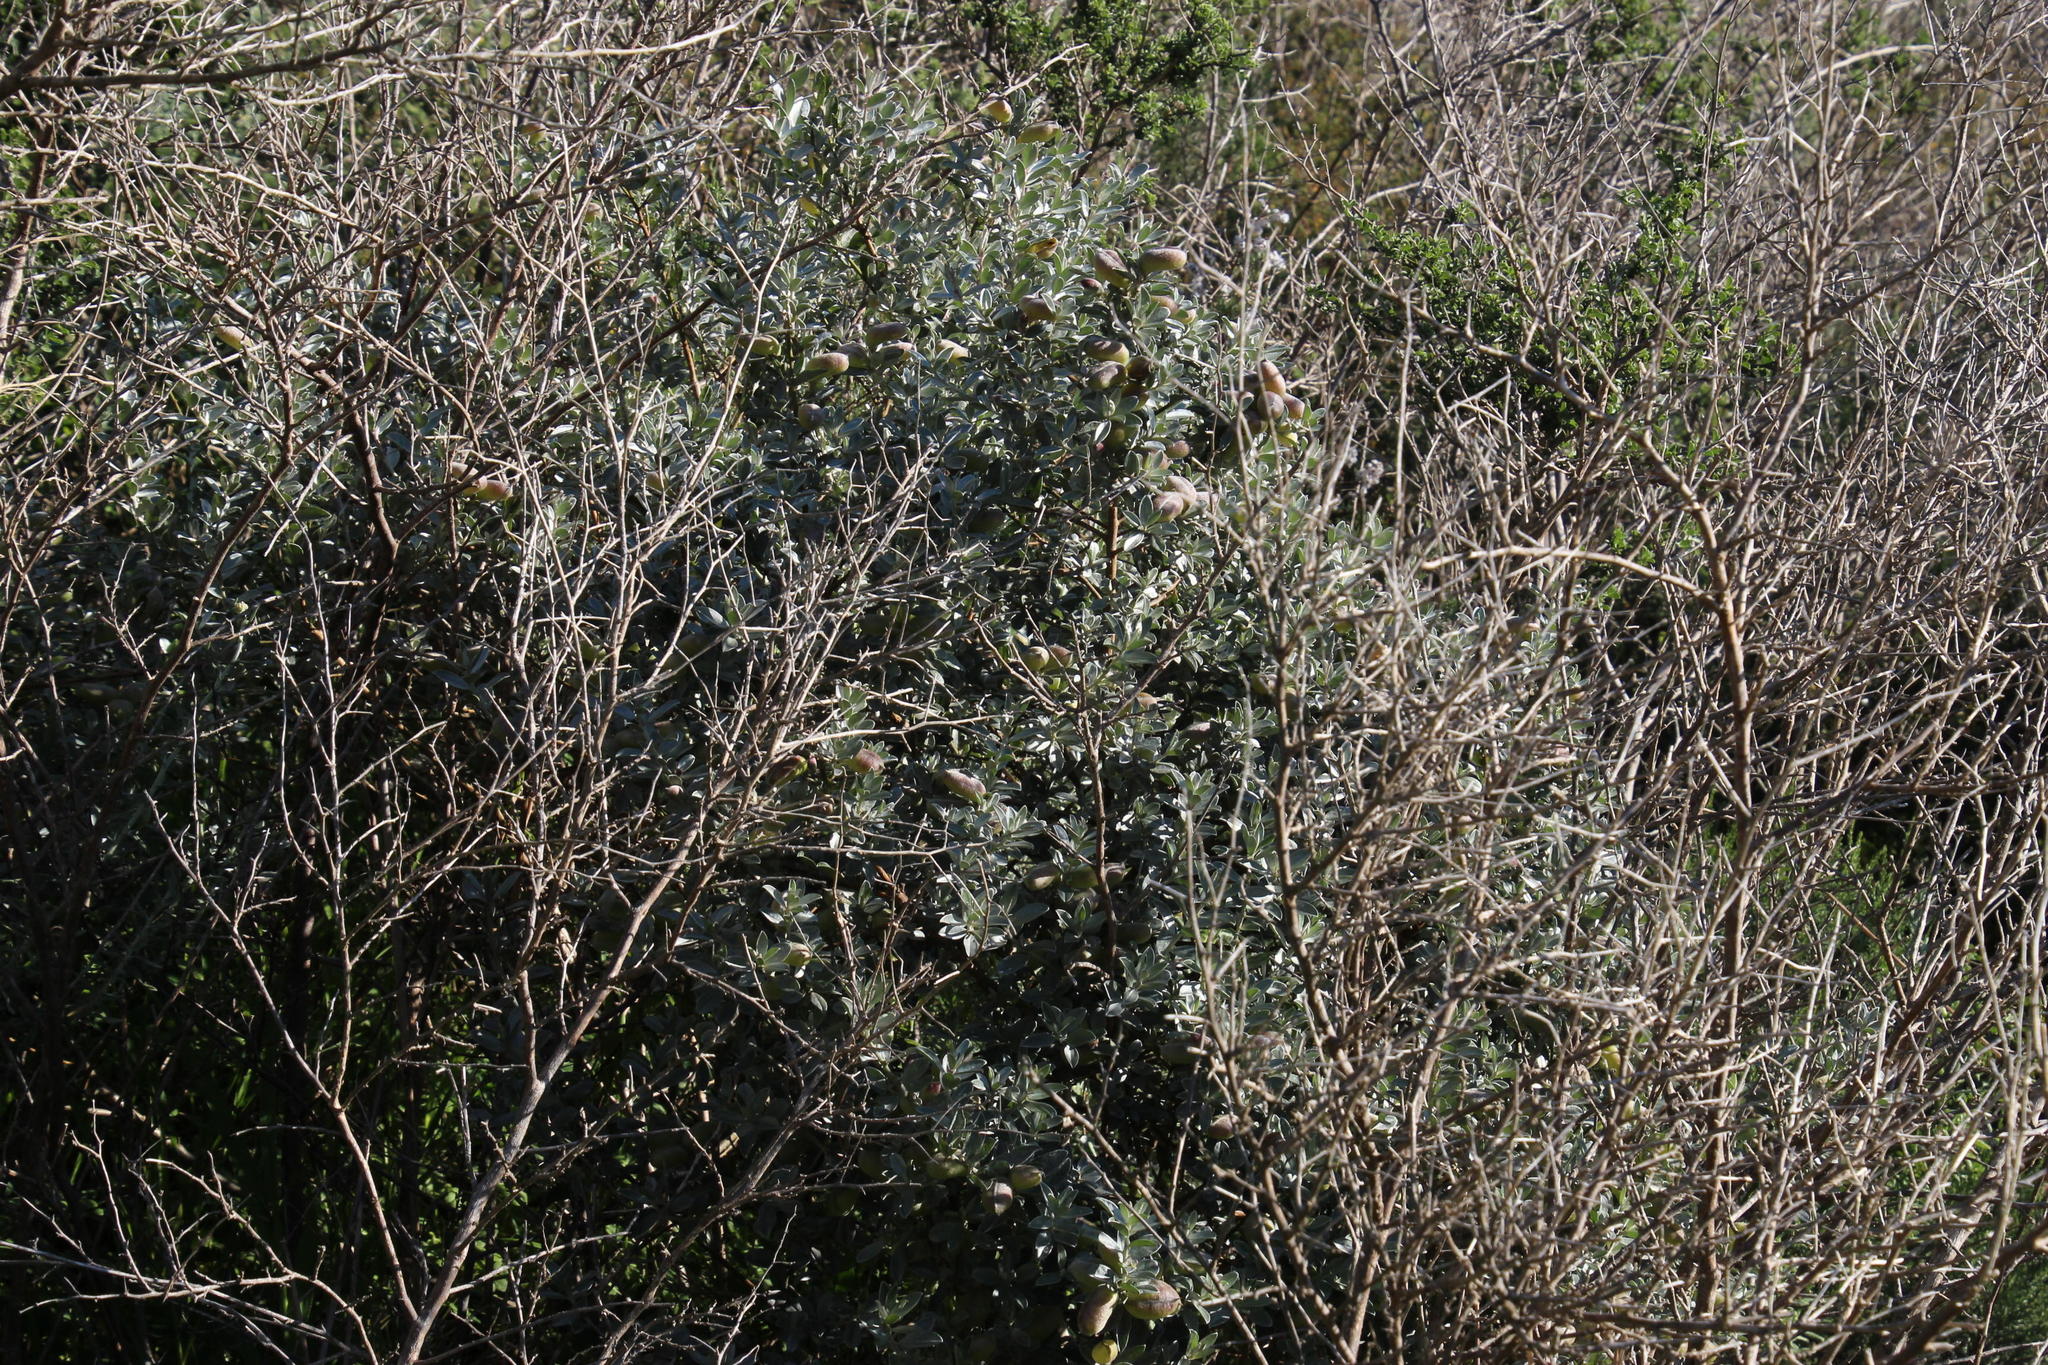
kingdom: Plantae
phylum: Tracheophyta
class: Magnoliopsida
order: Fabales
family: Fabaceae
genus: Podalyria
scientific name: Podalyria sericea
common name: Silver podalyria
